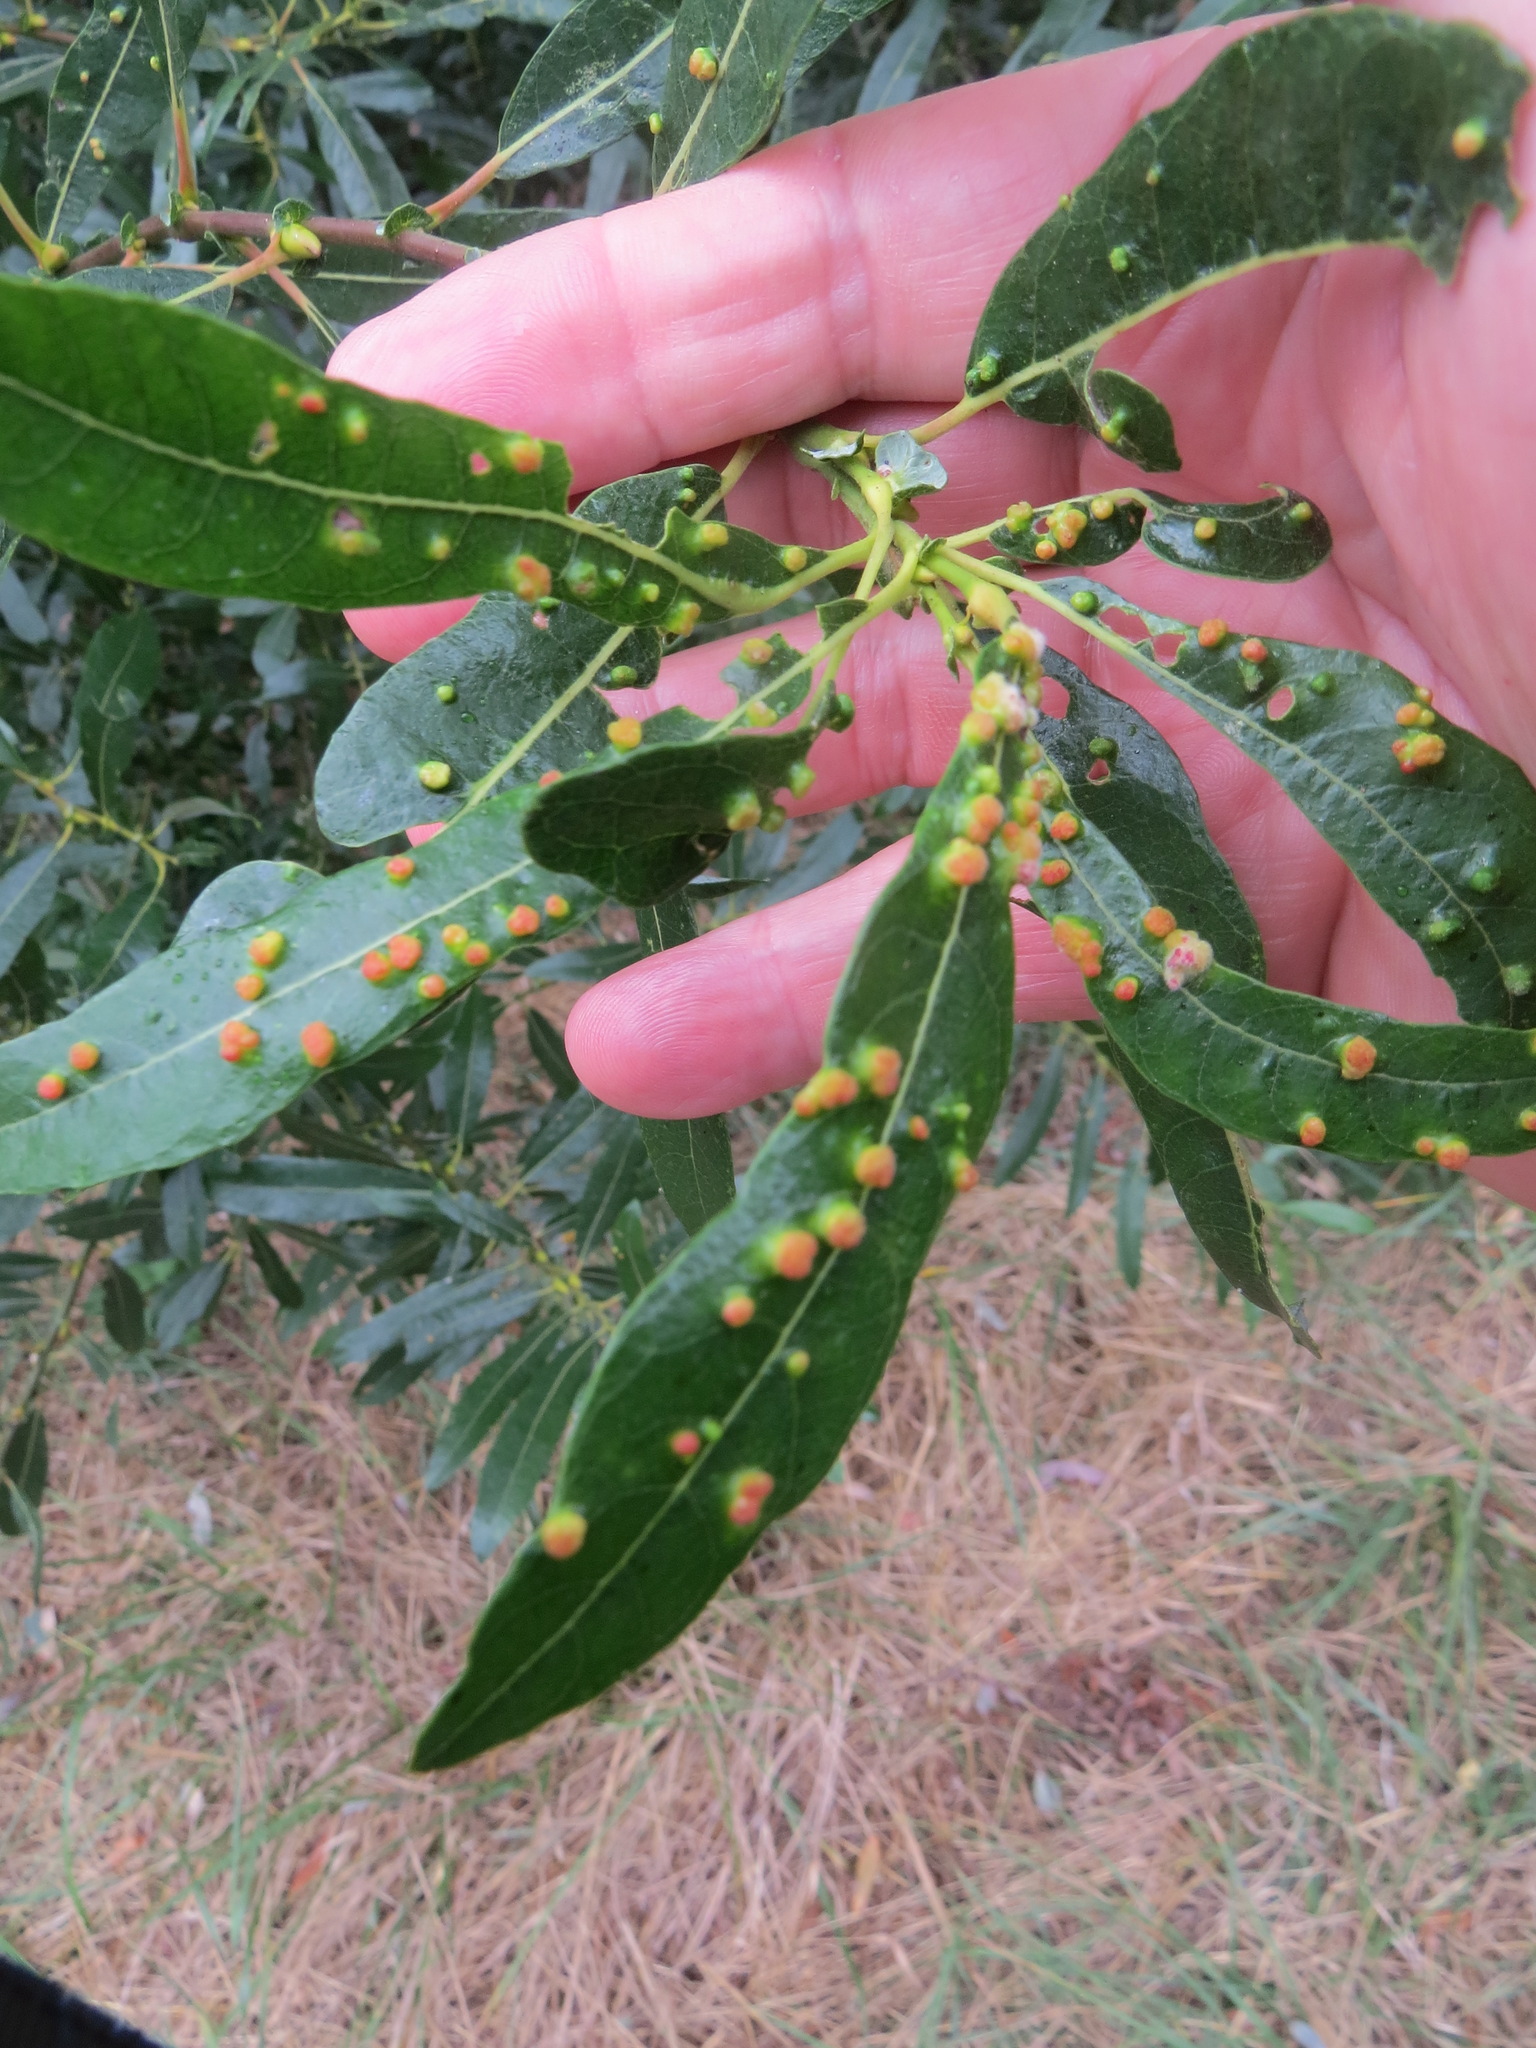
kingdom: Animalia
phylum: Arthropoda
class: Arachnida
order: Trombidiformes
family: Eriophyidae
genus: Aculus
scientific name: Aculus tetanothrix
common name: Willow bead gall mite
